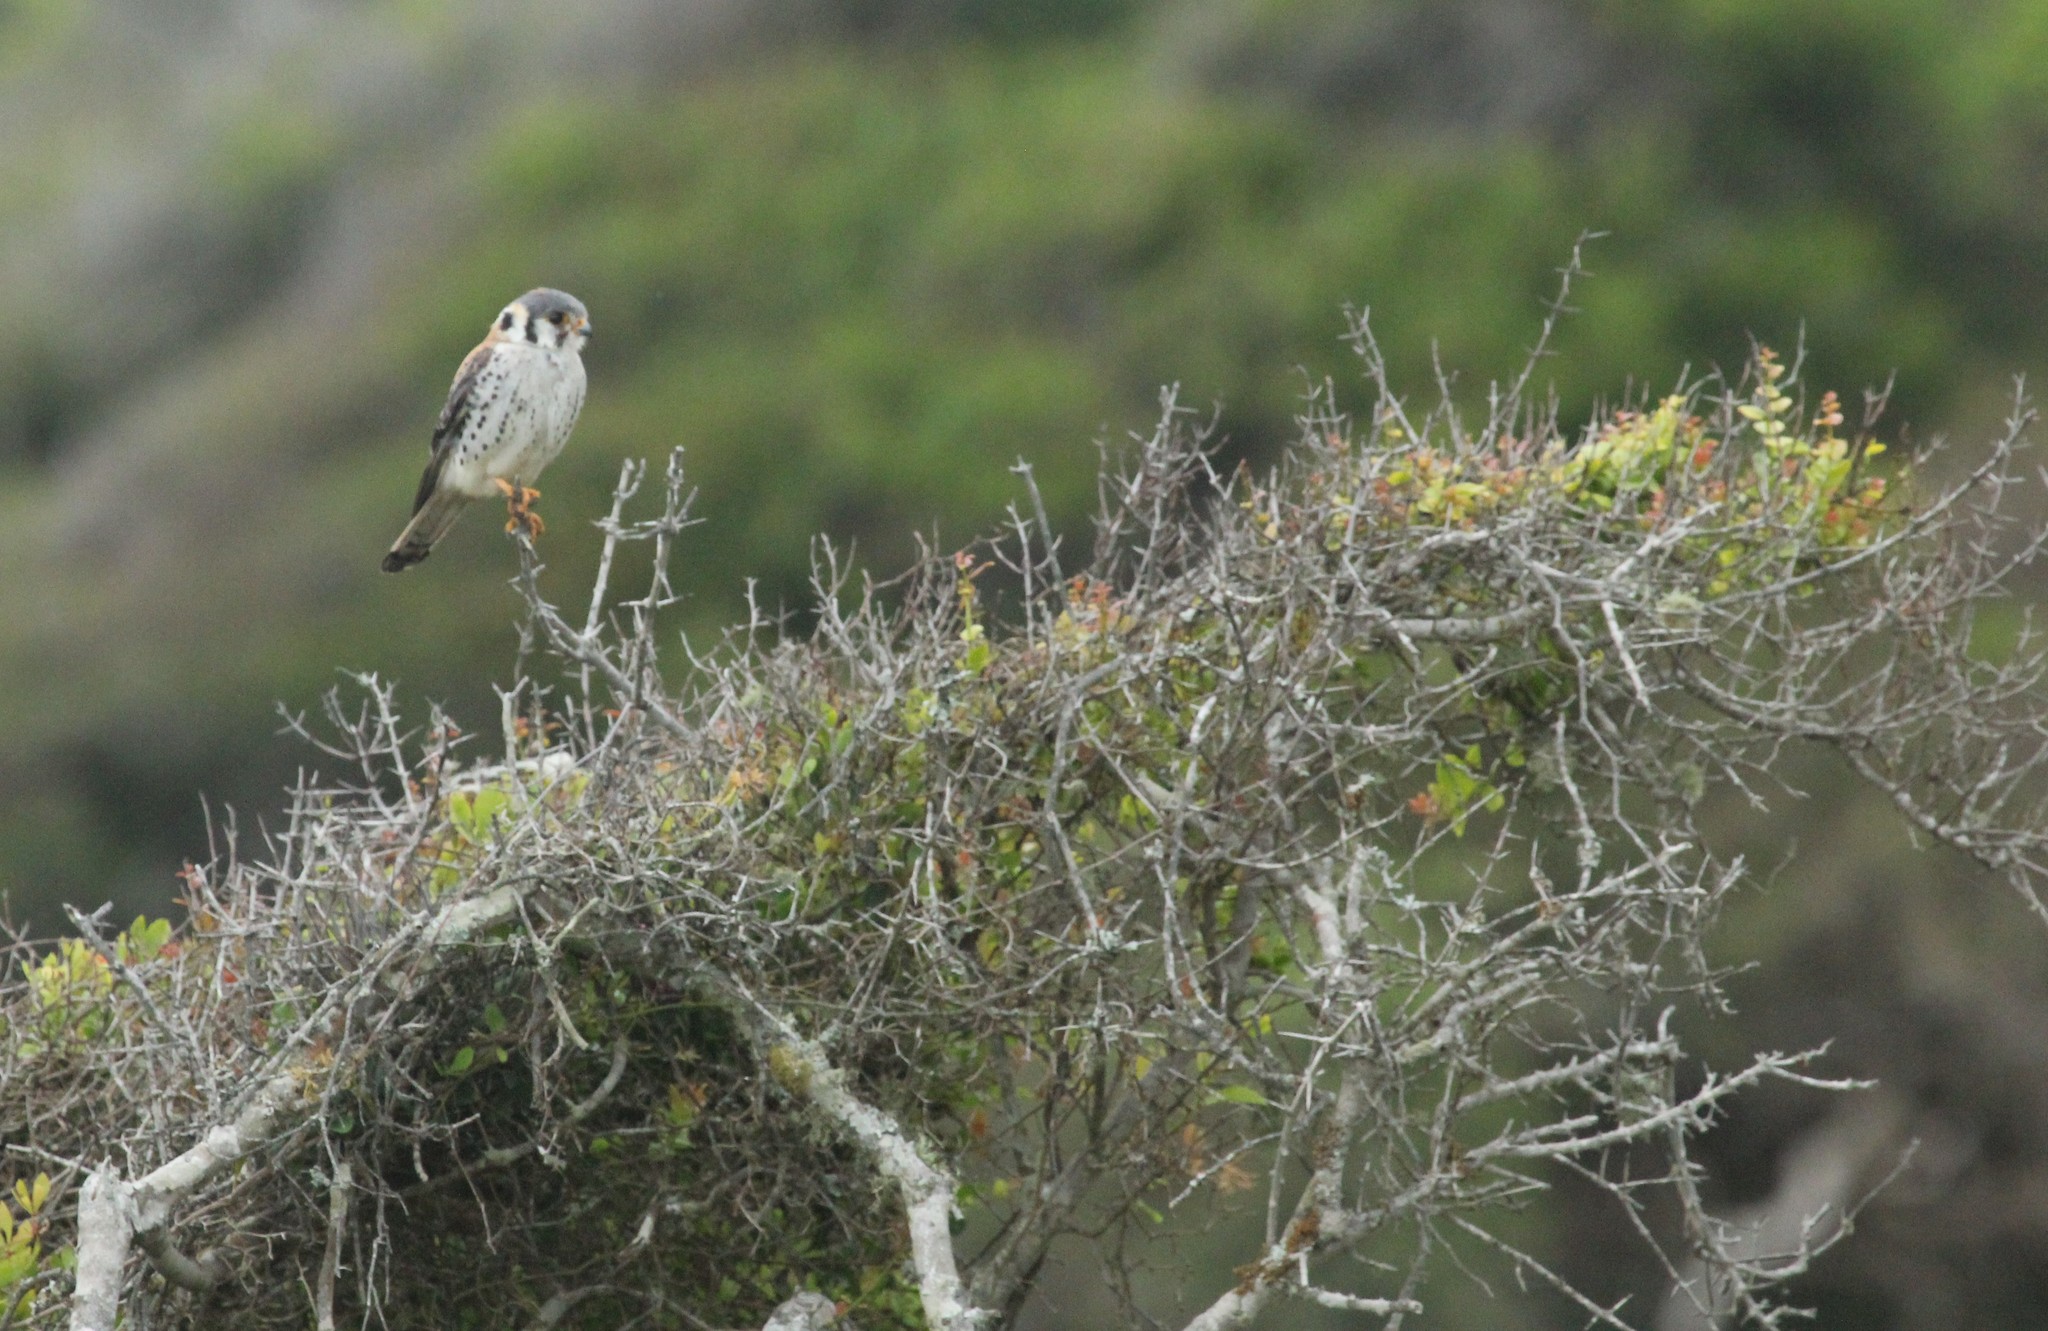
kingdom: Animalia
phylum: Chordata
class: Aves
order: Falconiformes
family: Falconidae
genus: Falco
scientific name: Falco sparverius
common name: American kestrel
